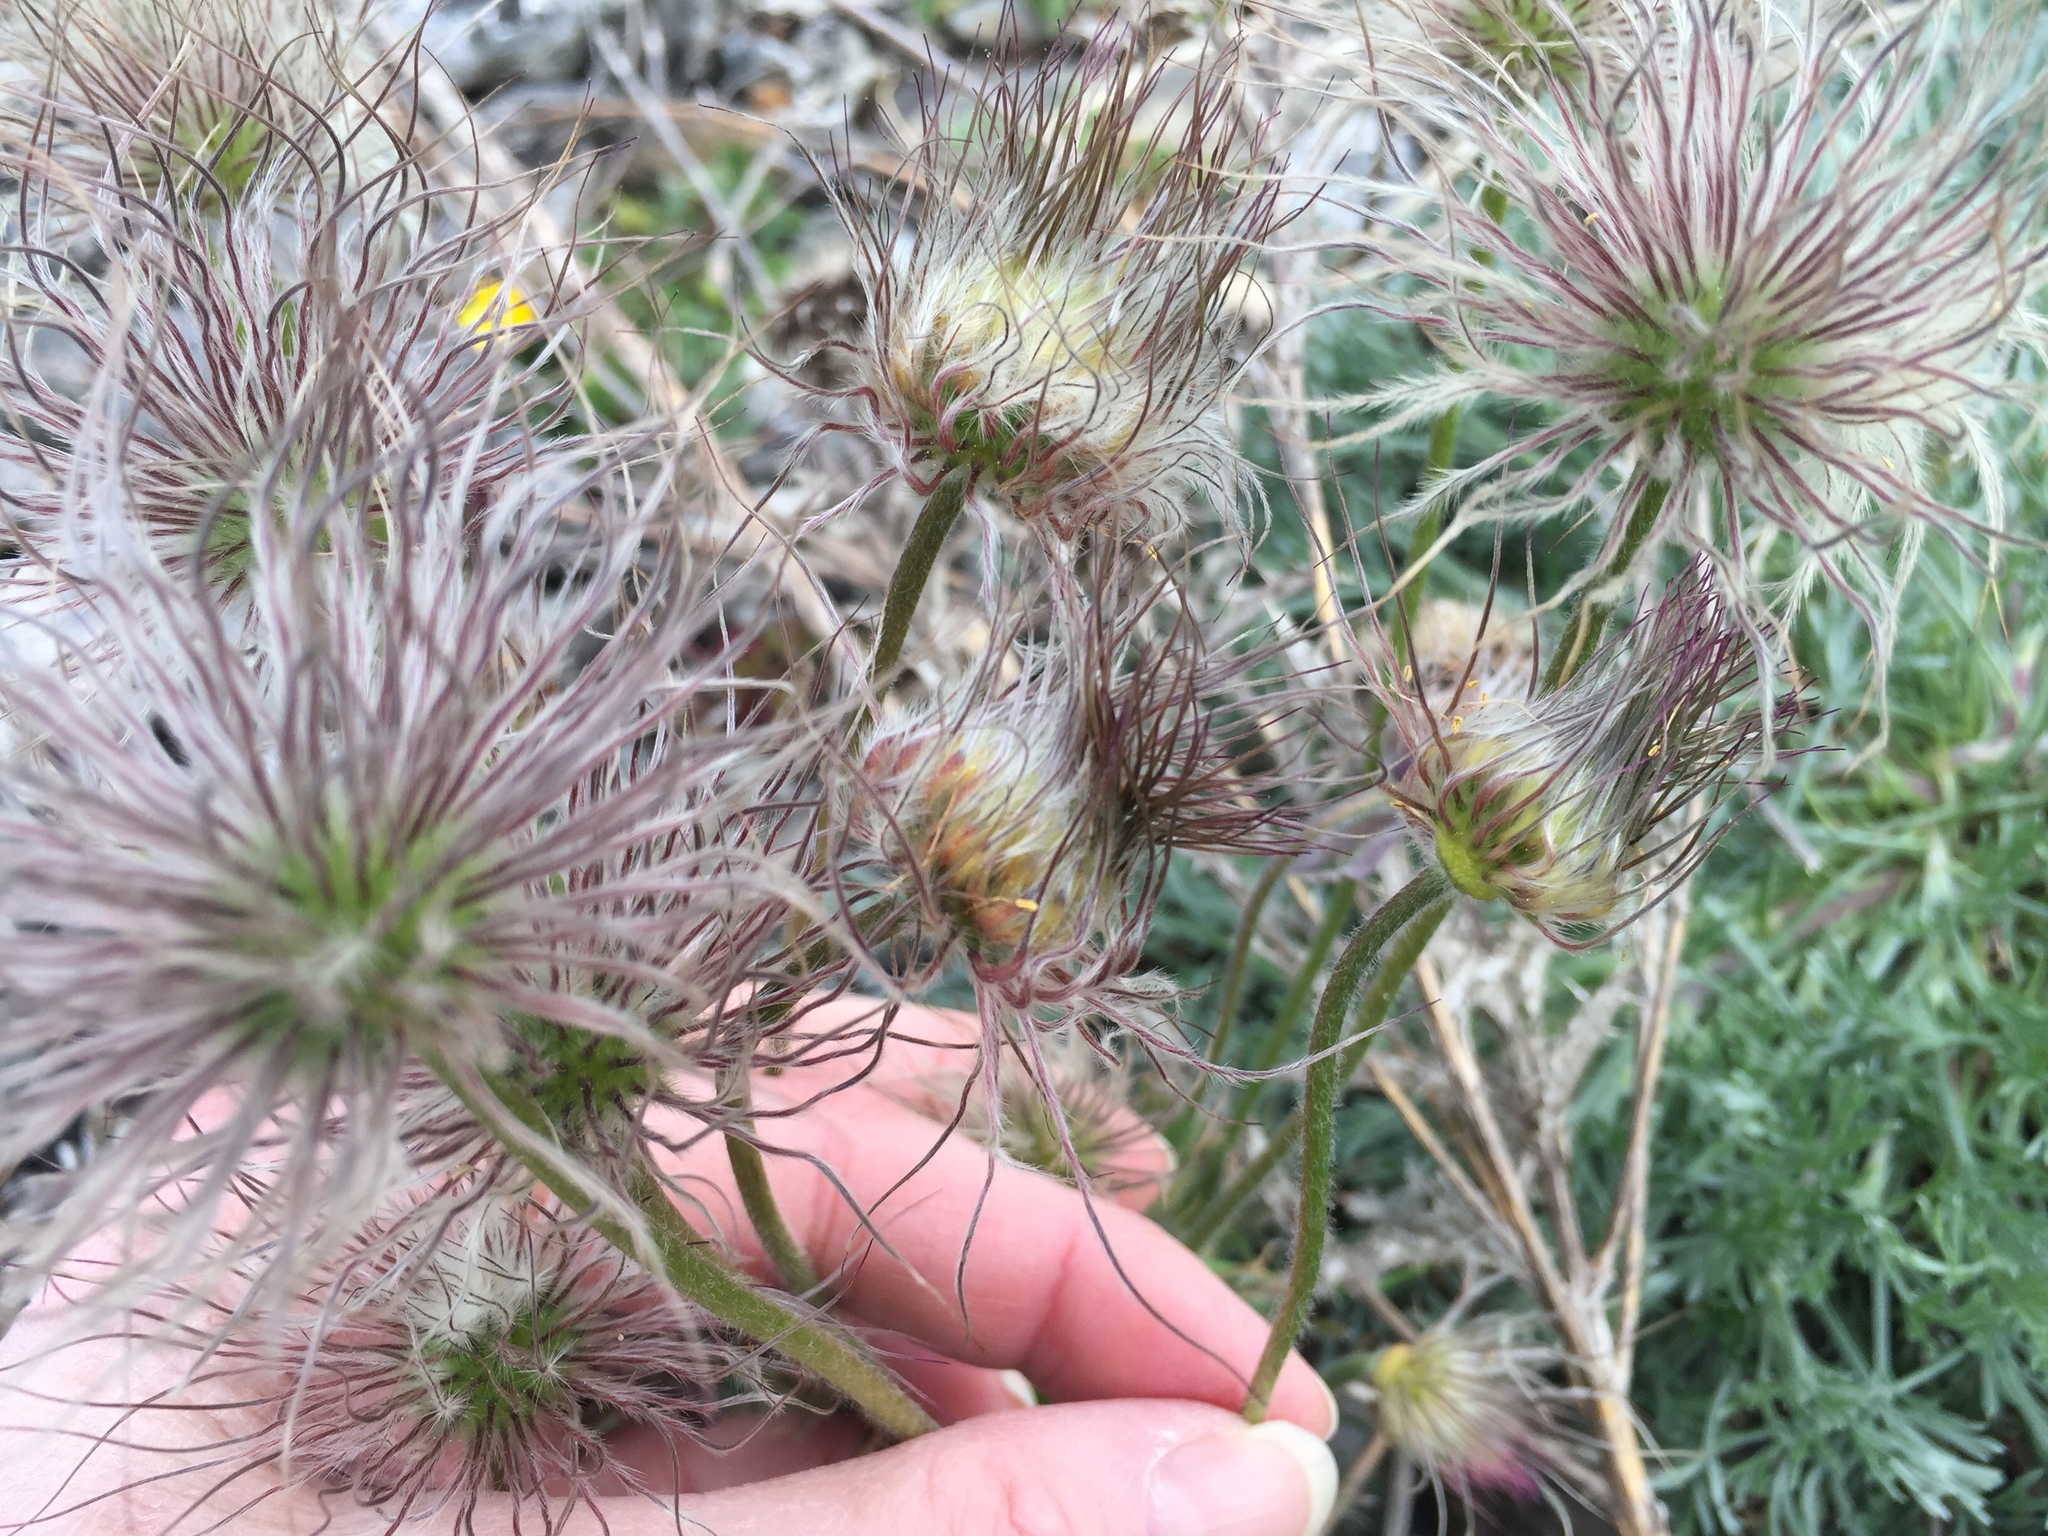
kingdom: Animalia
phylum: Arthropoda
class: Insecta
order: Diptera
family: Cecidomyiidae
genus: Dasineura
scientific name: Dasineura pulsatillae
